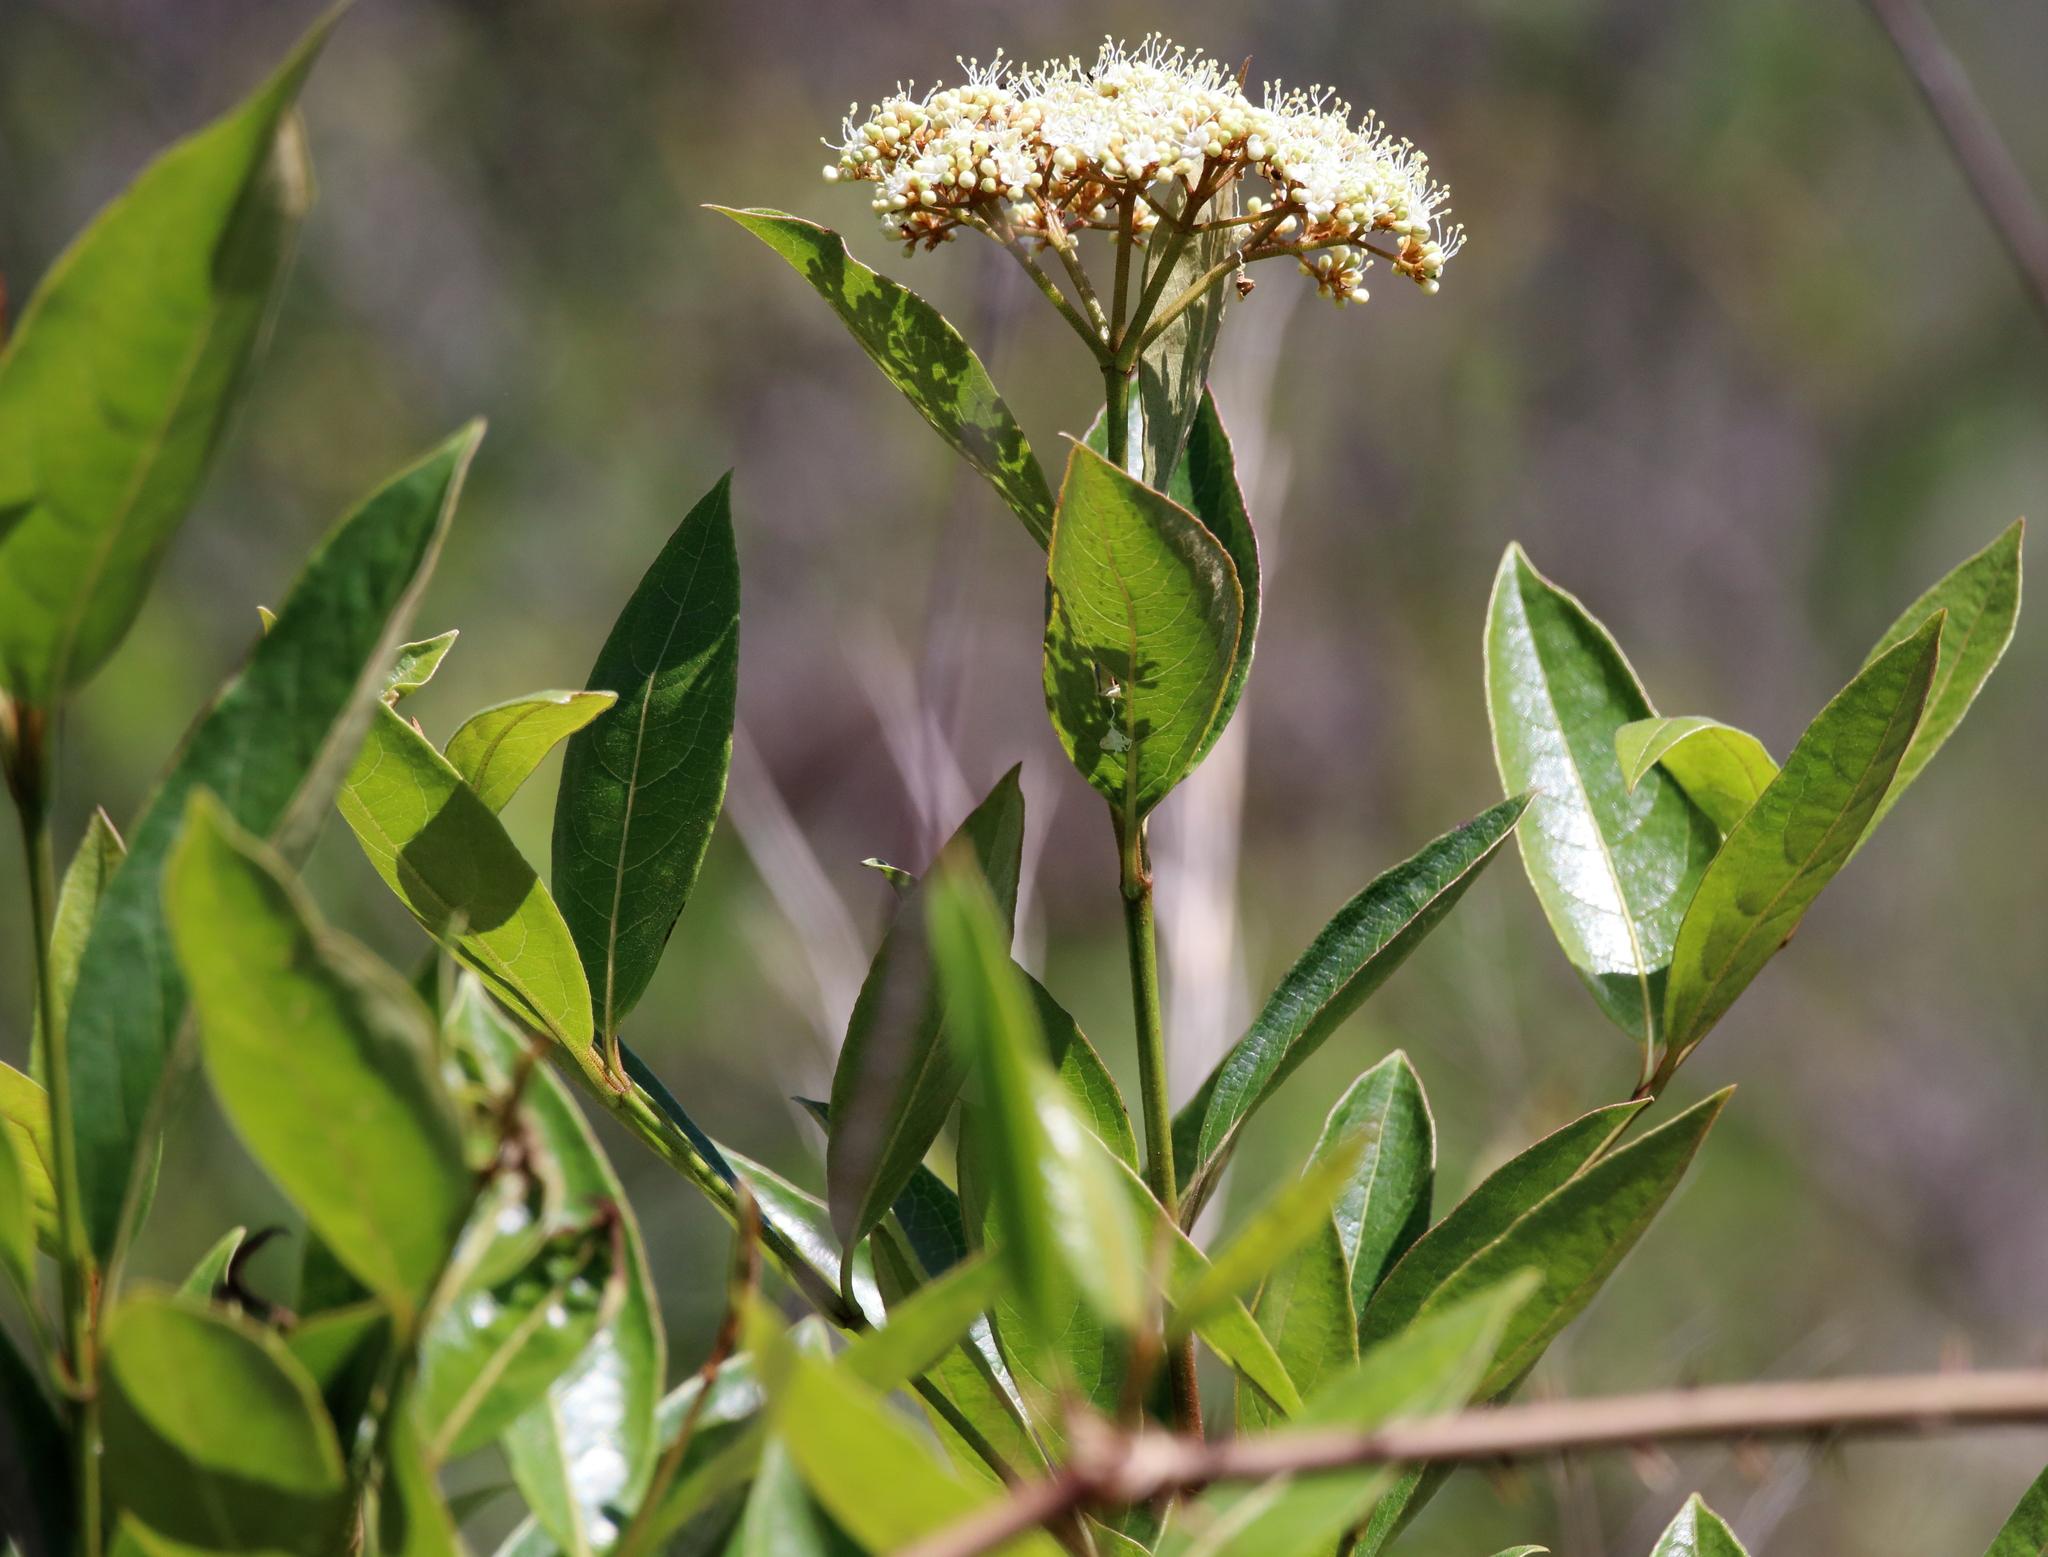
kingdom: Plantae
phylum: Tracheophyta
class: Magnoliopsida
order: Dipsacales
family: Viburnaceae
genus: Viburnum
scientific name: Viburnum nudum
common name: Possum haw
